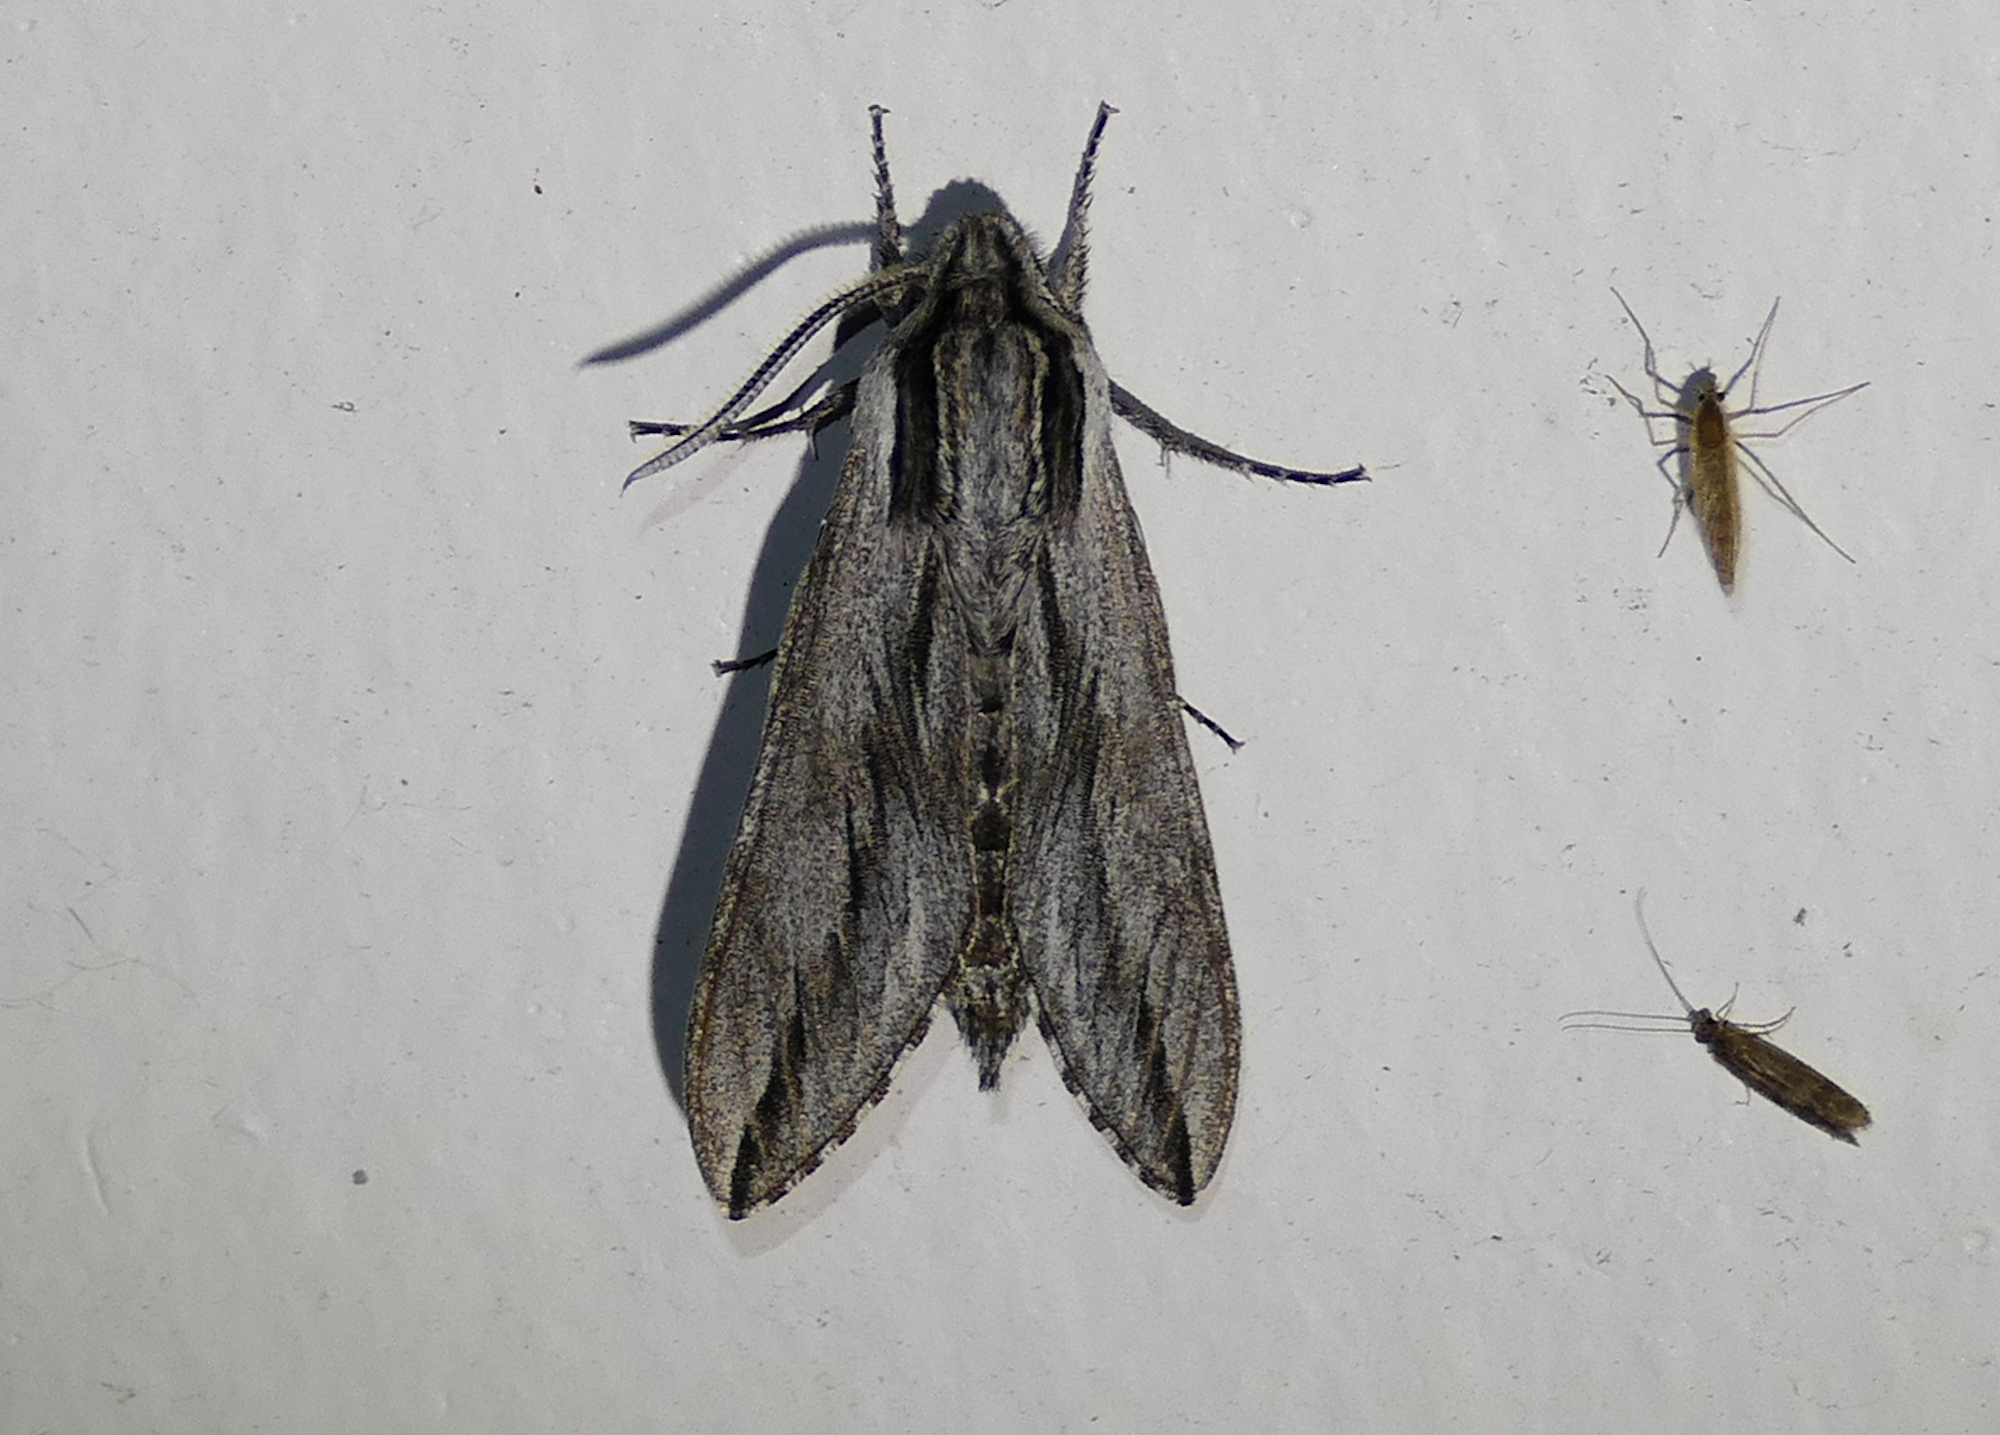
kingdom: Animalia
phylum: Arthropoda
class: Insecta
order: Lepidoptera
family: Sphingidae
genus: Sphinx
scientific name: Sphinx dollii
